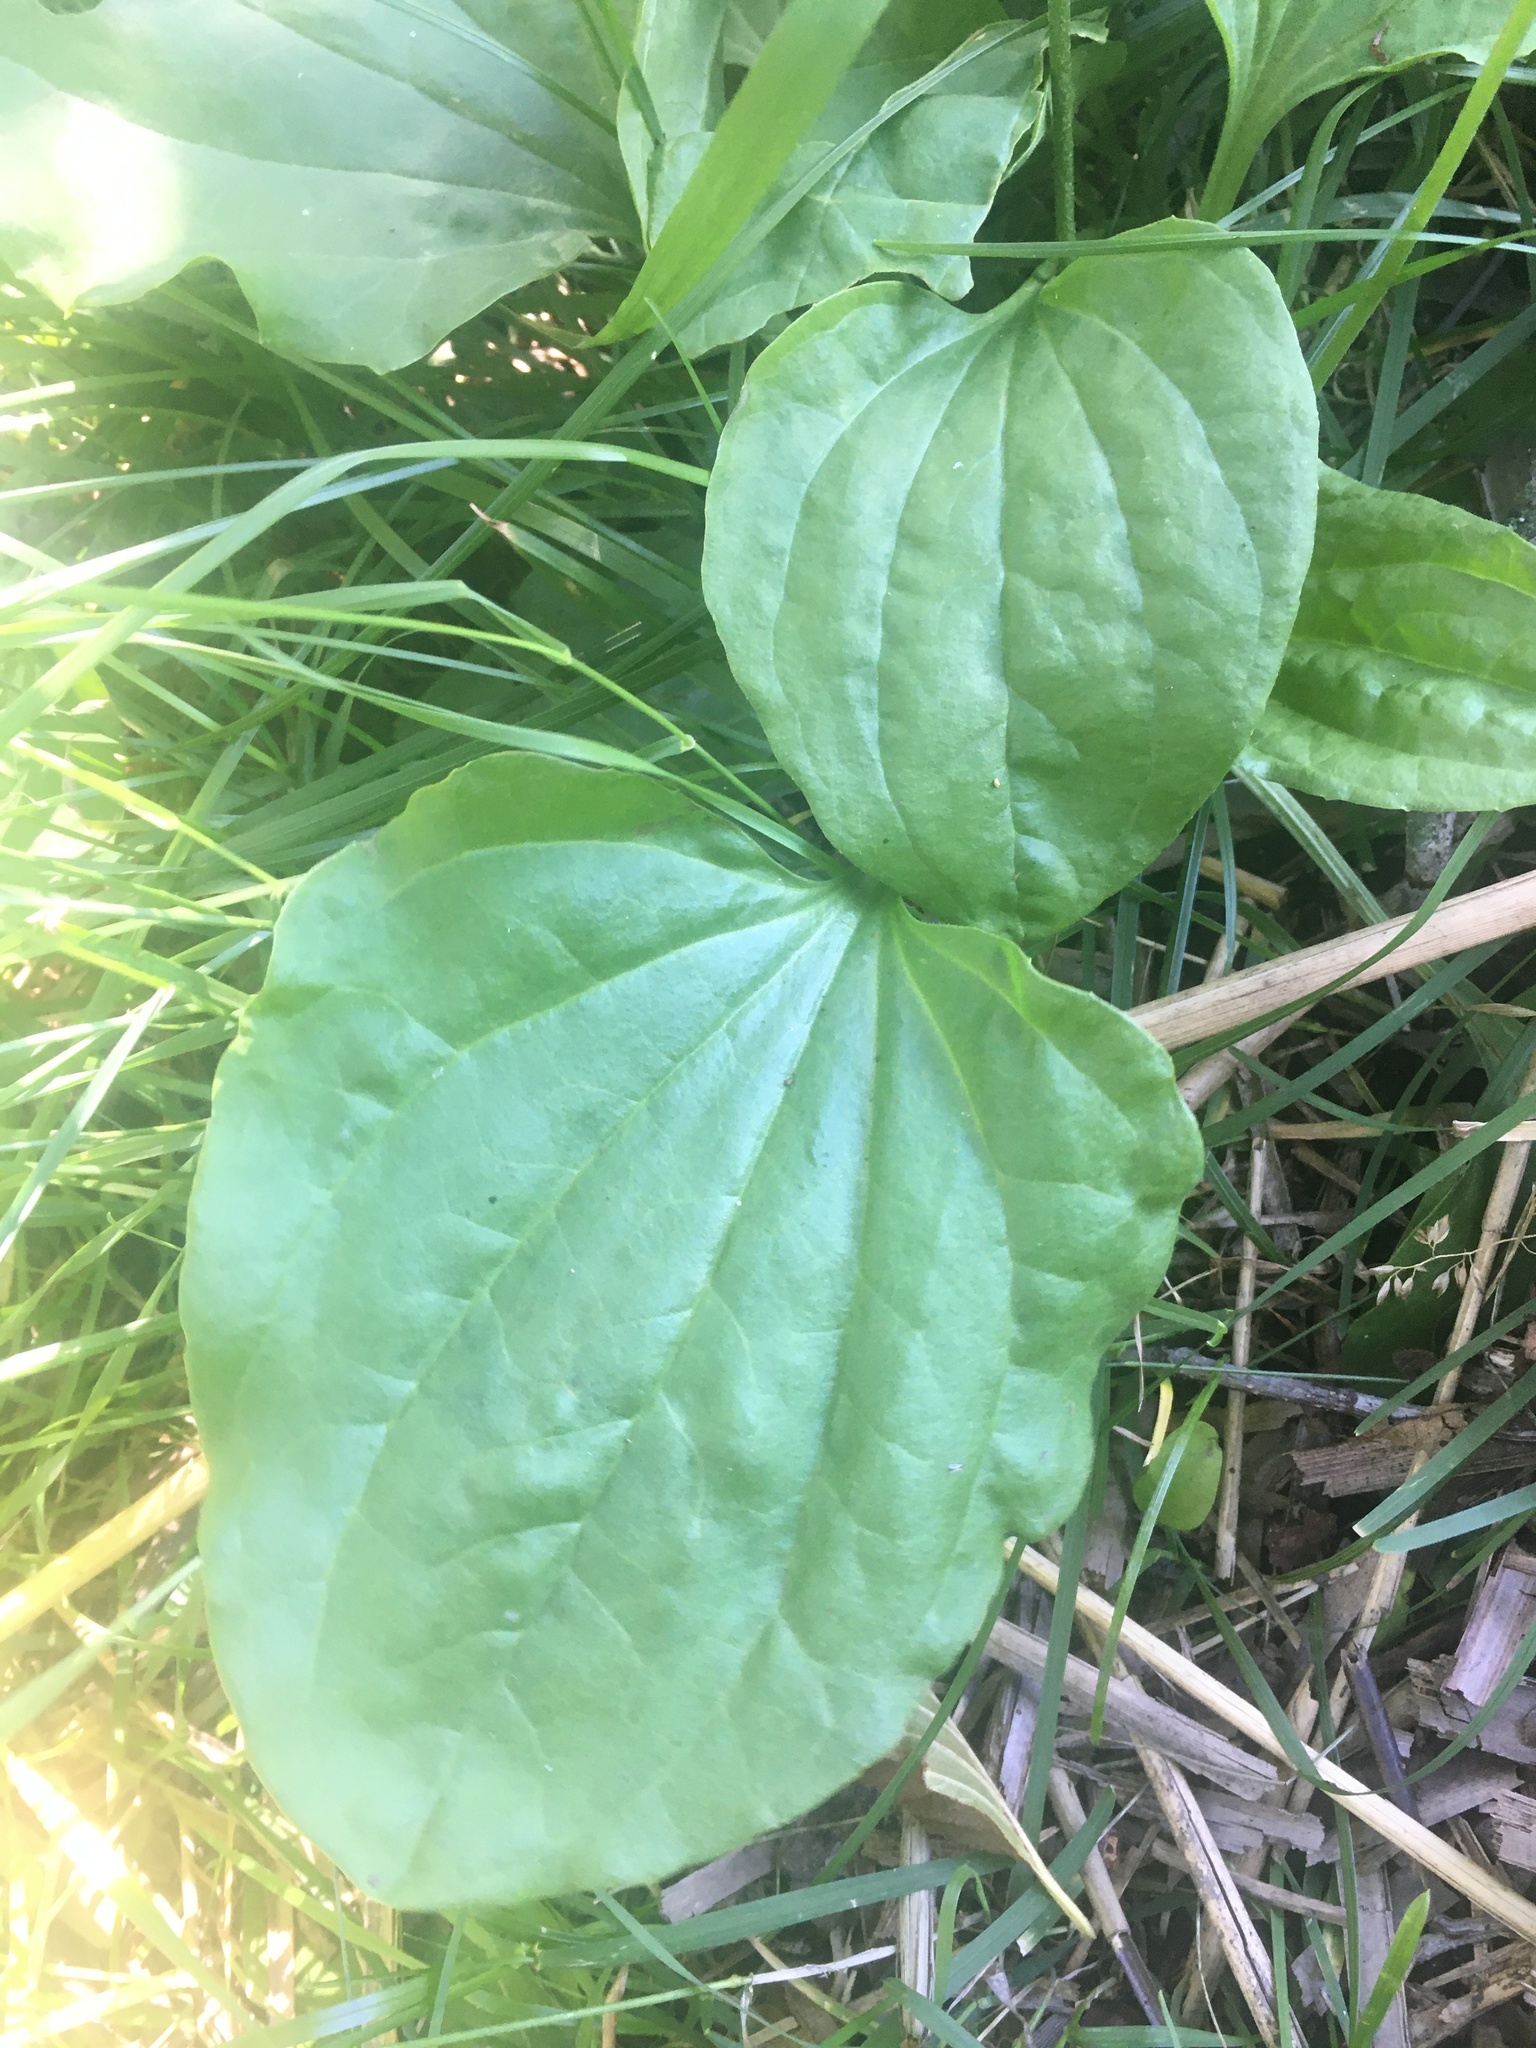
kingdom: Plantae
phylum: Tracheophyta
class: Magnoliopsida
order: Lamiales
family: Plantaginaceae
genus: Plantago
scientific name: Plantago major
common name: Common plantain
